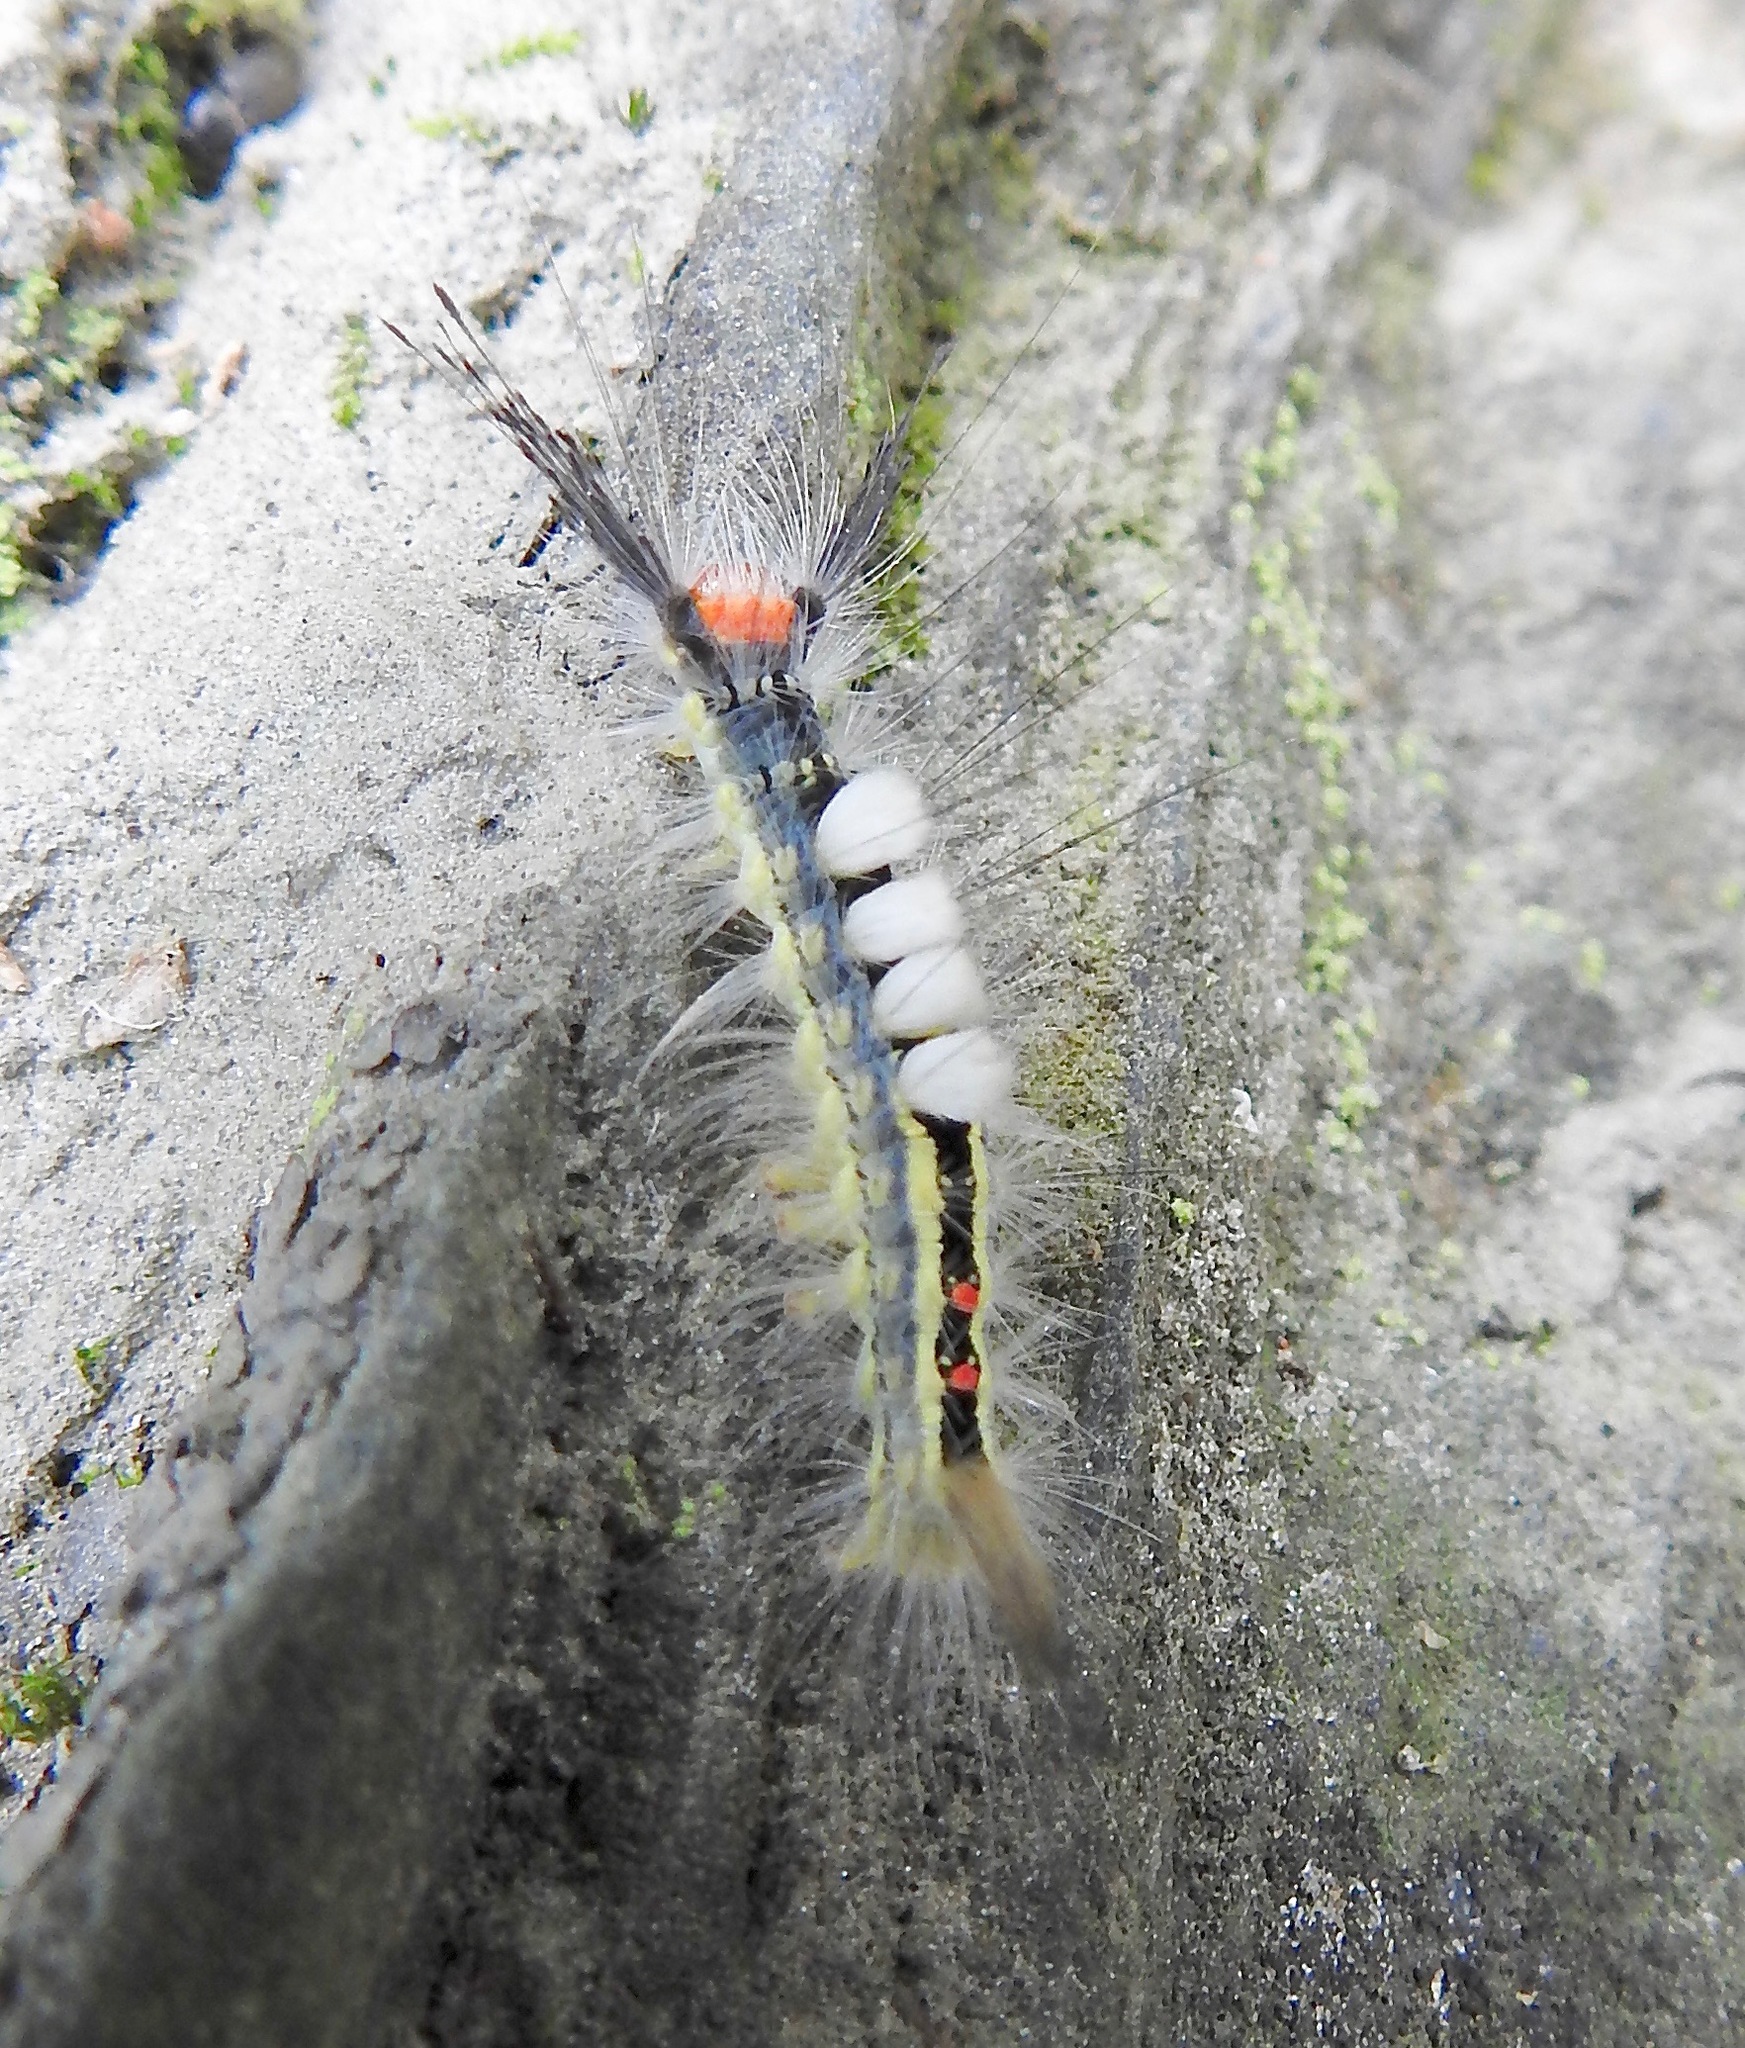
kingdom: Animalia
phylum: Arthropoda
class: Insecta
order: Lepidoptera
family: Erebidae
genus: Orgyia
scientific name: Orgyia leucostigma
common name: White-marked tussock moth
